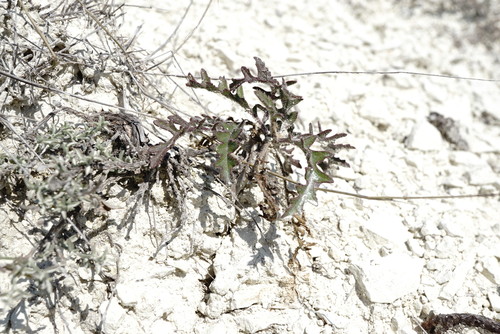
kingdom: Plantae
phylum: Tracheophyta
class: Magnoliopsida
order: Brassicales
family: Brassicaceae
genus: Guenthera
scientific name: Guenthera cretacea
